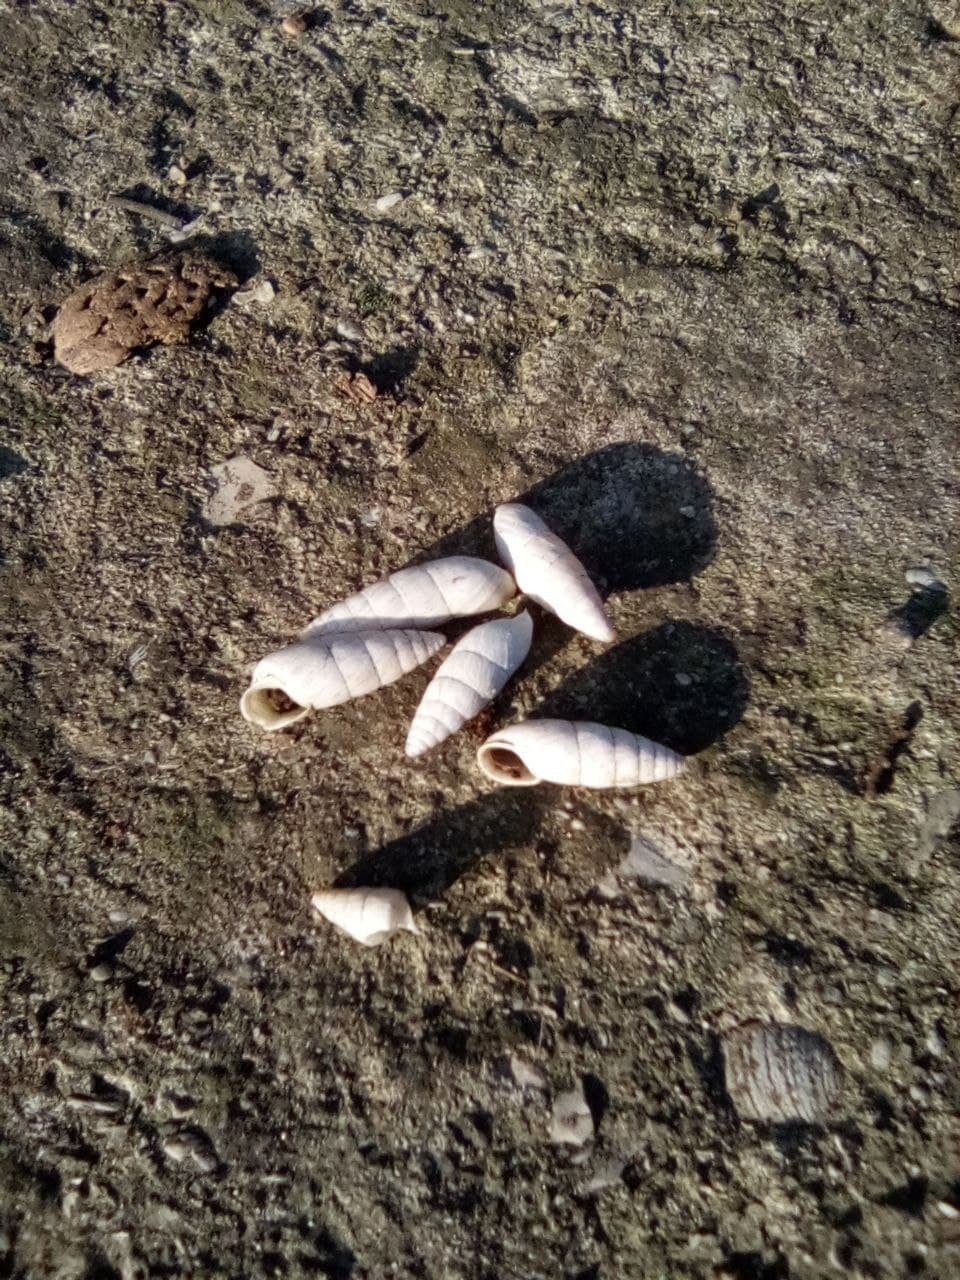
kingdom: Animalia
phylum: Mollusca
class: Gastropoda
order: Stylommatophora
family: Enidae
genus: Brephulopsis
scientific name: Brephulopsis cylindrica
